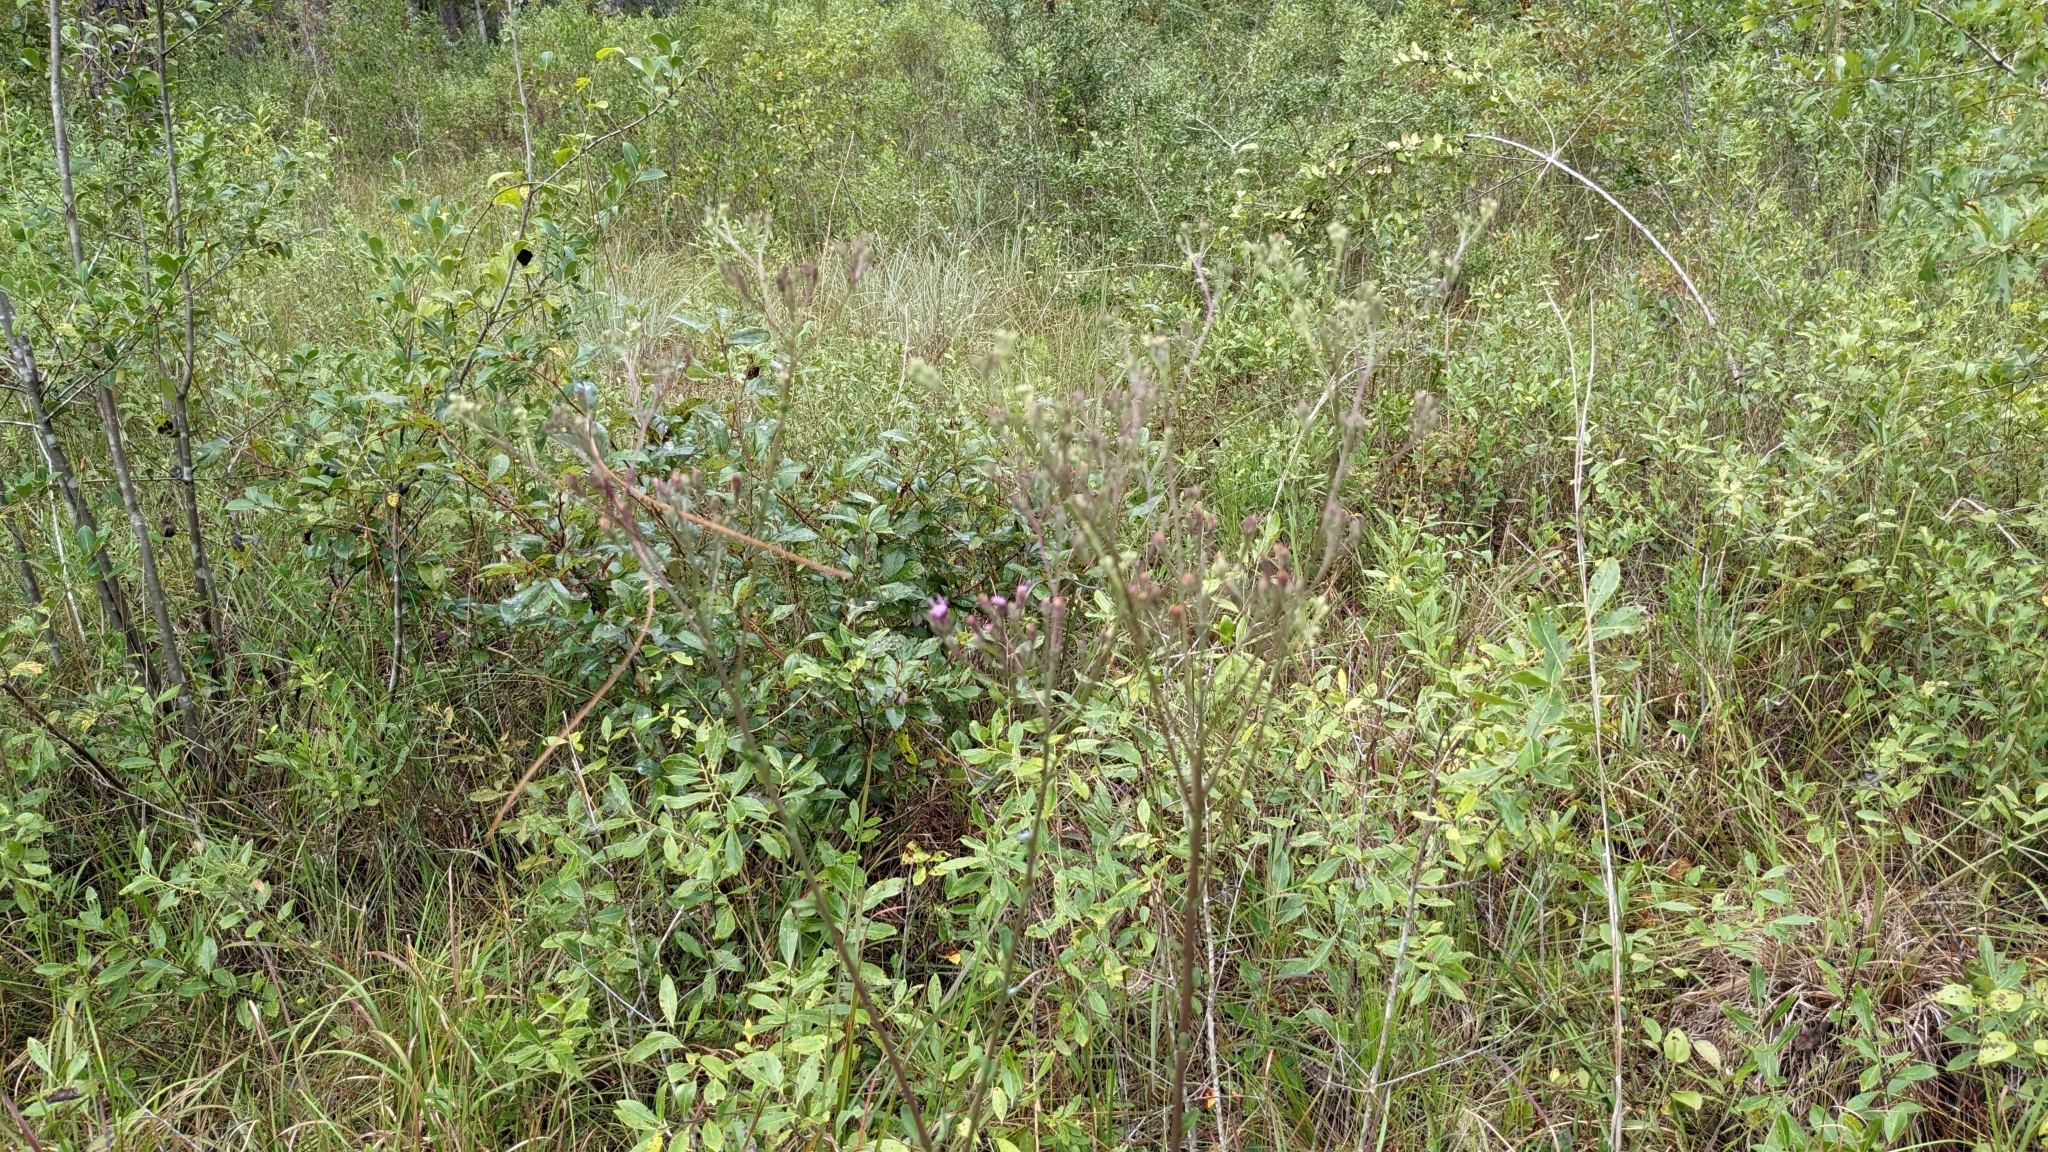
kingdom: Plantae
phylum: Tracheophyta
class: Magnoliopsida
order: Asterales
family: Asteraceae
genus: Carphephorus
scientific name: Carphephorus odoratissimus
